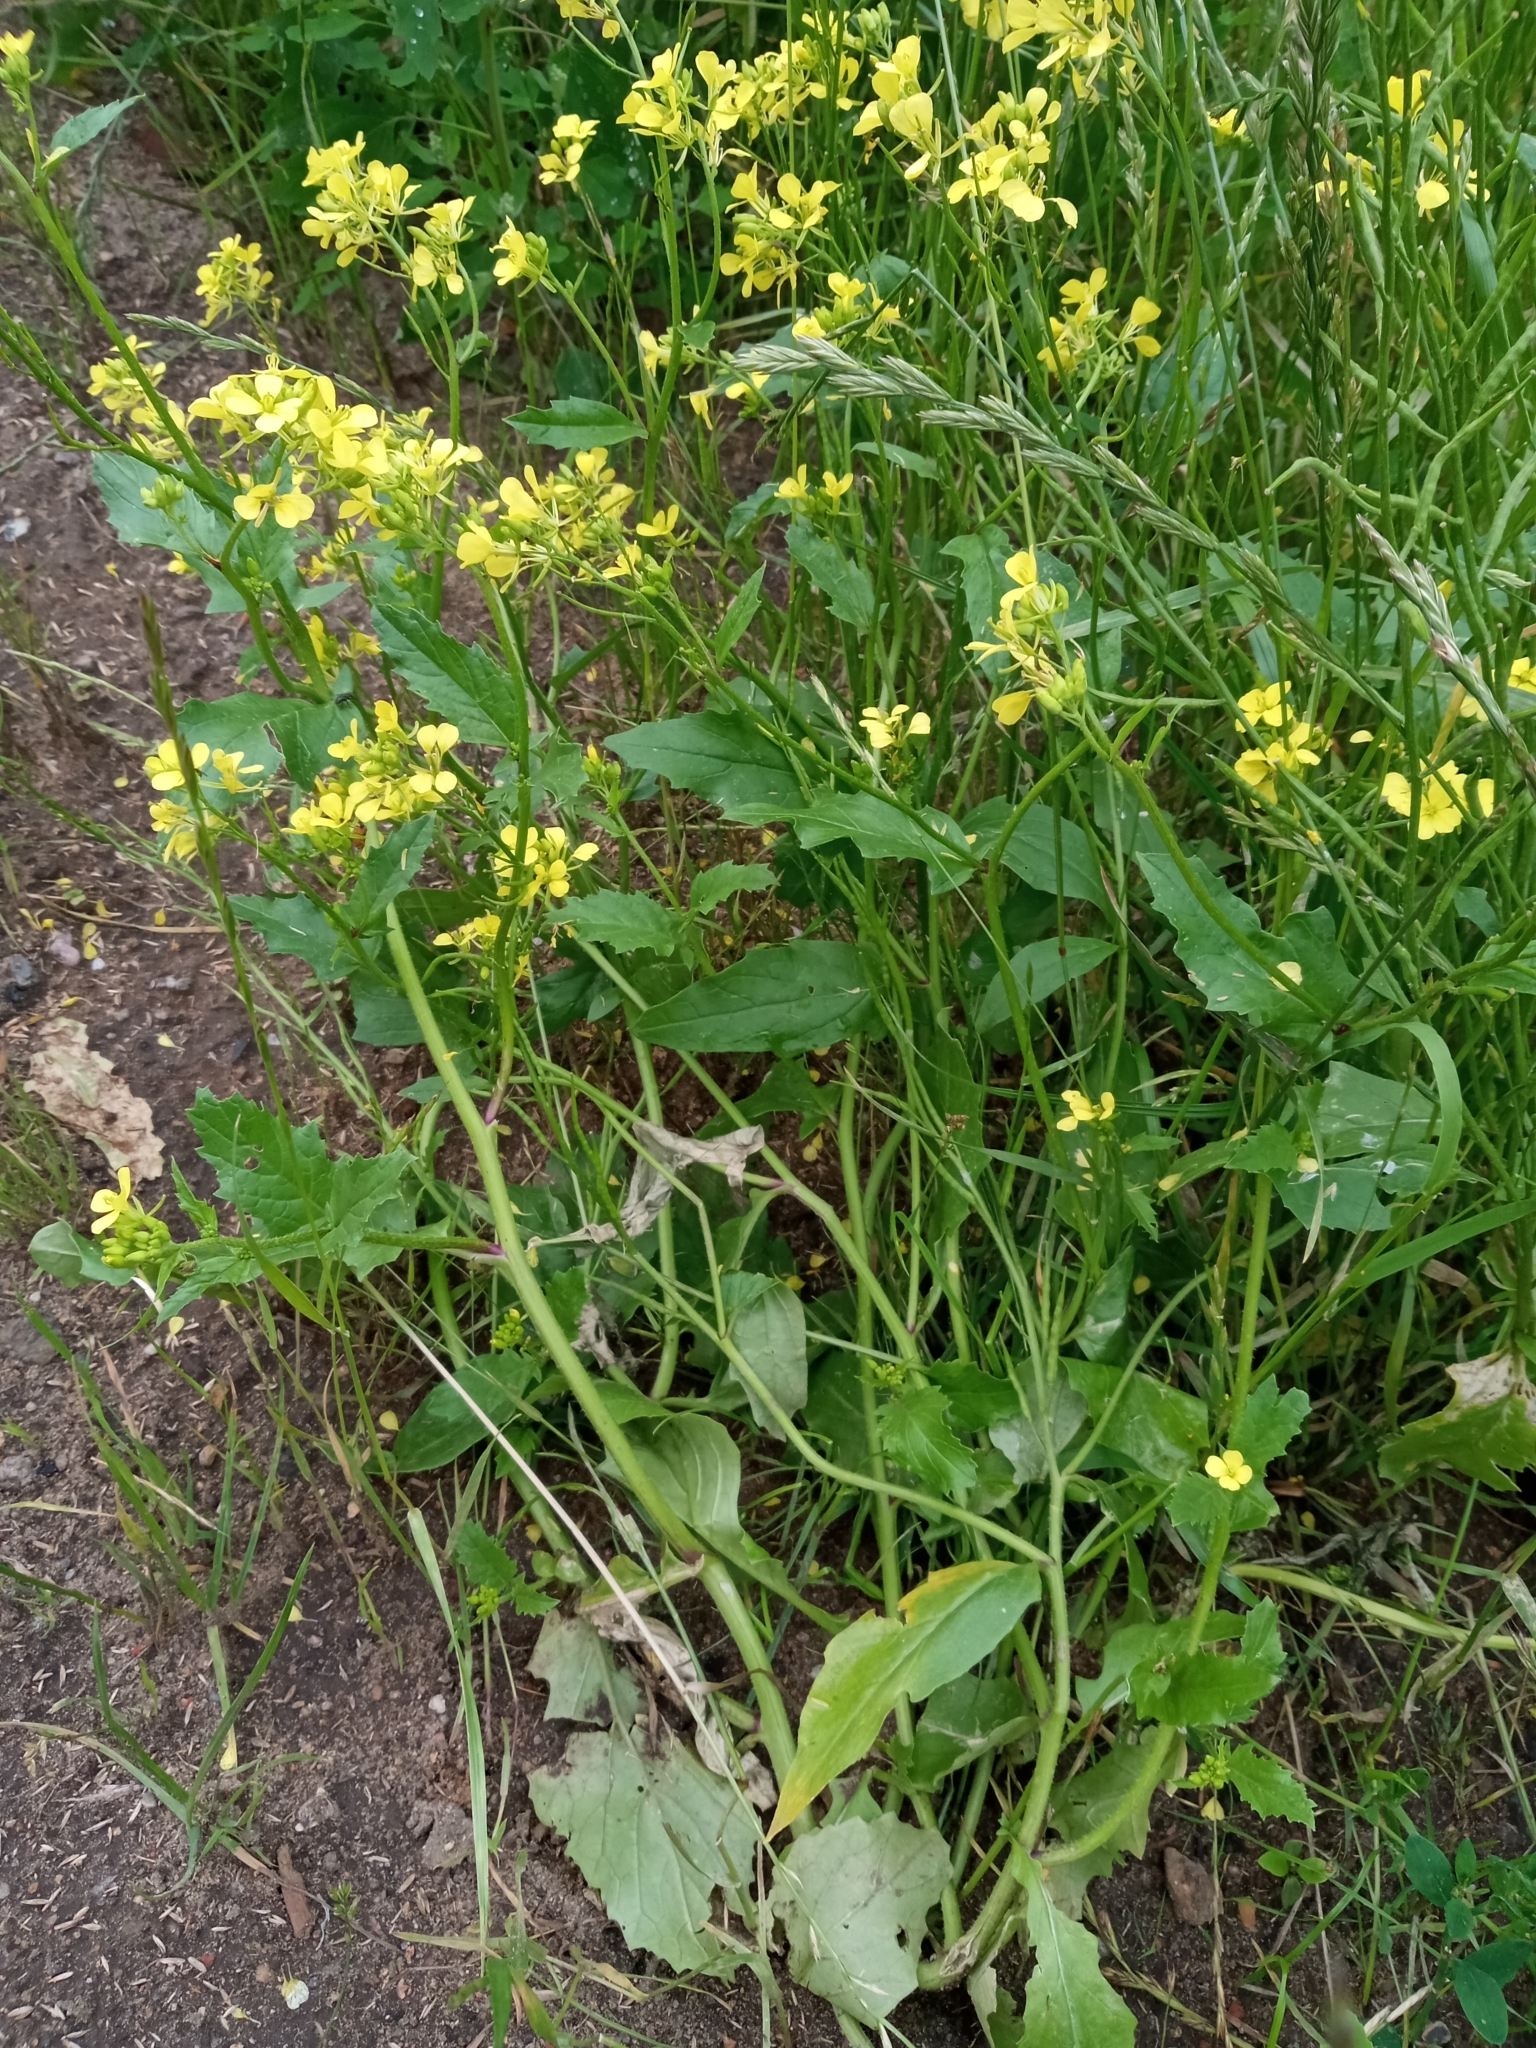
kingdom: Plantae
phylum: Tracheophyta
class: Magnoliopsida
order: Brassicales
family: Brassicaceae
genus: Sinapis
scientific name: Sinapis arvensis
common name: Charlock
